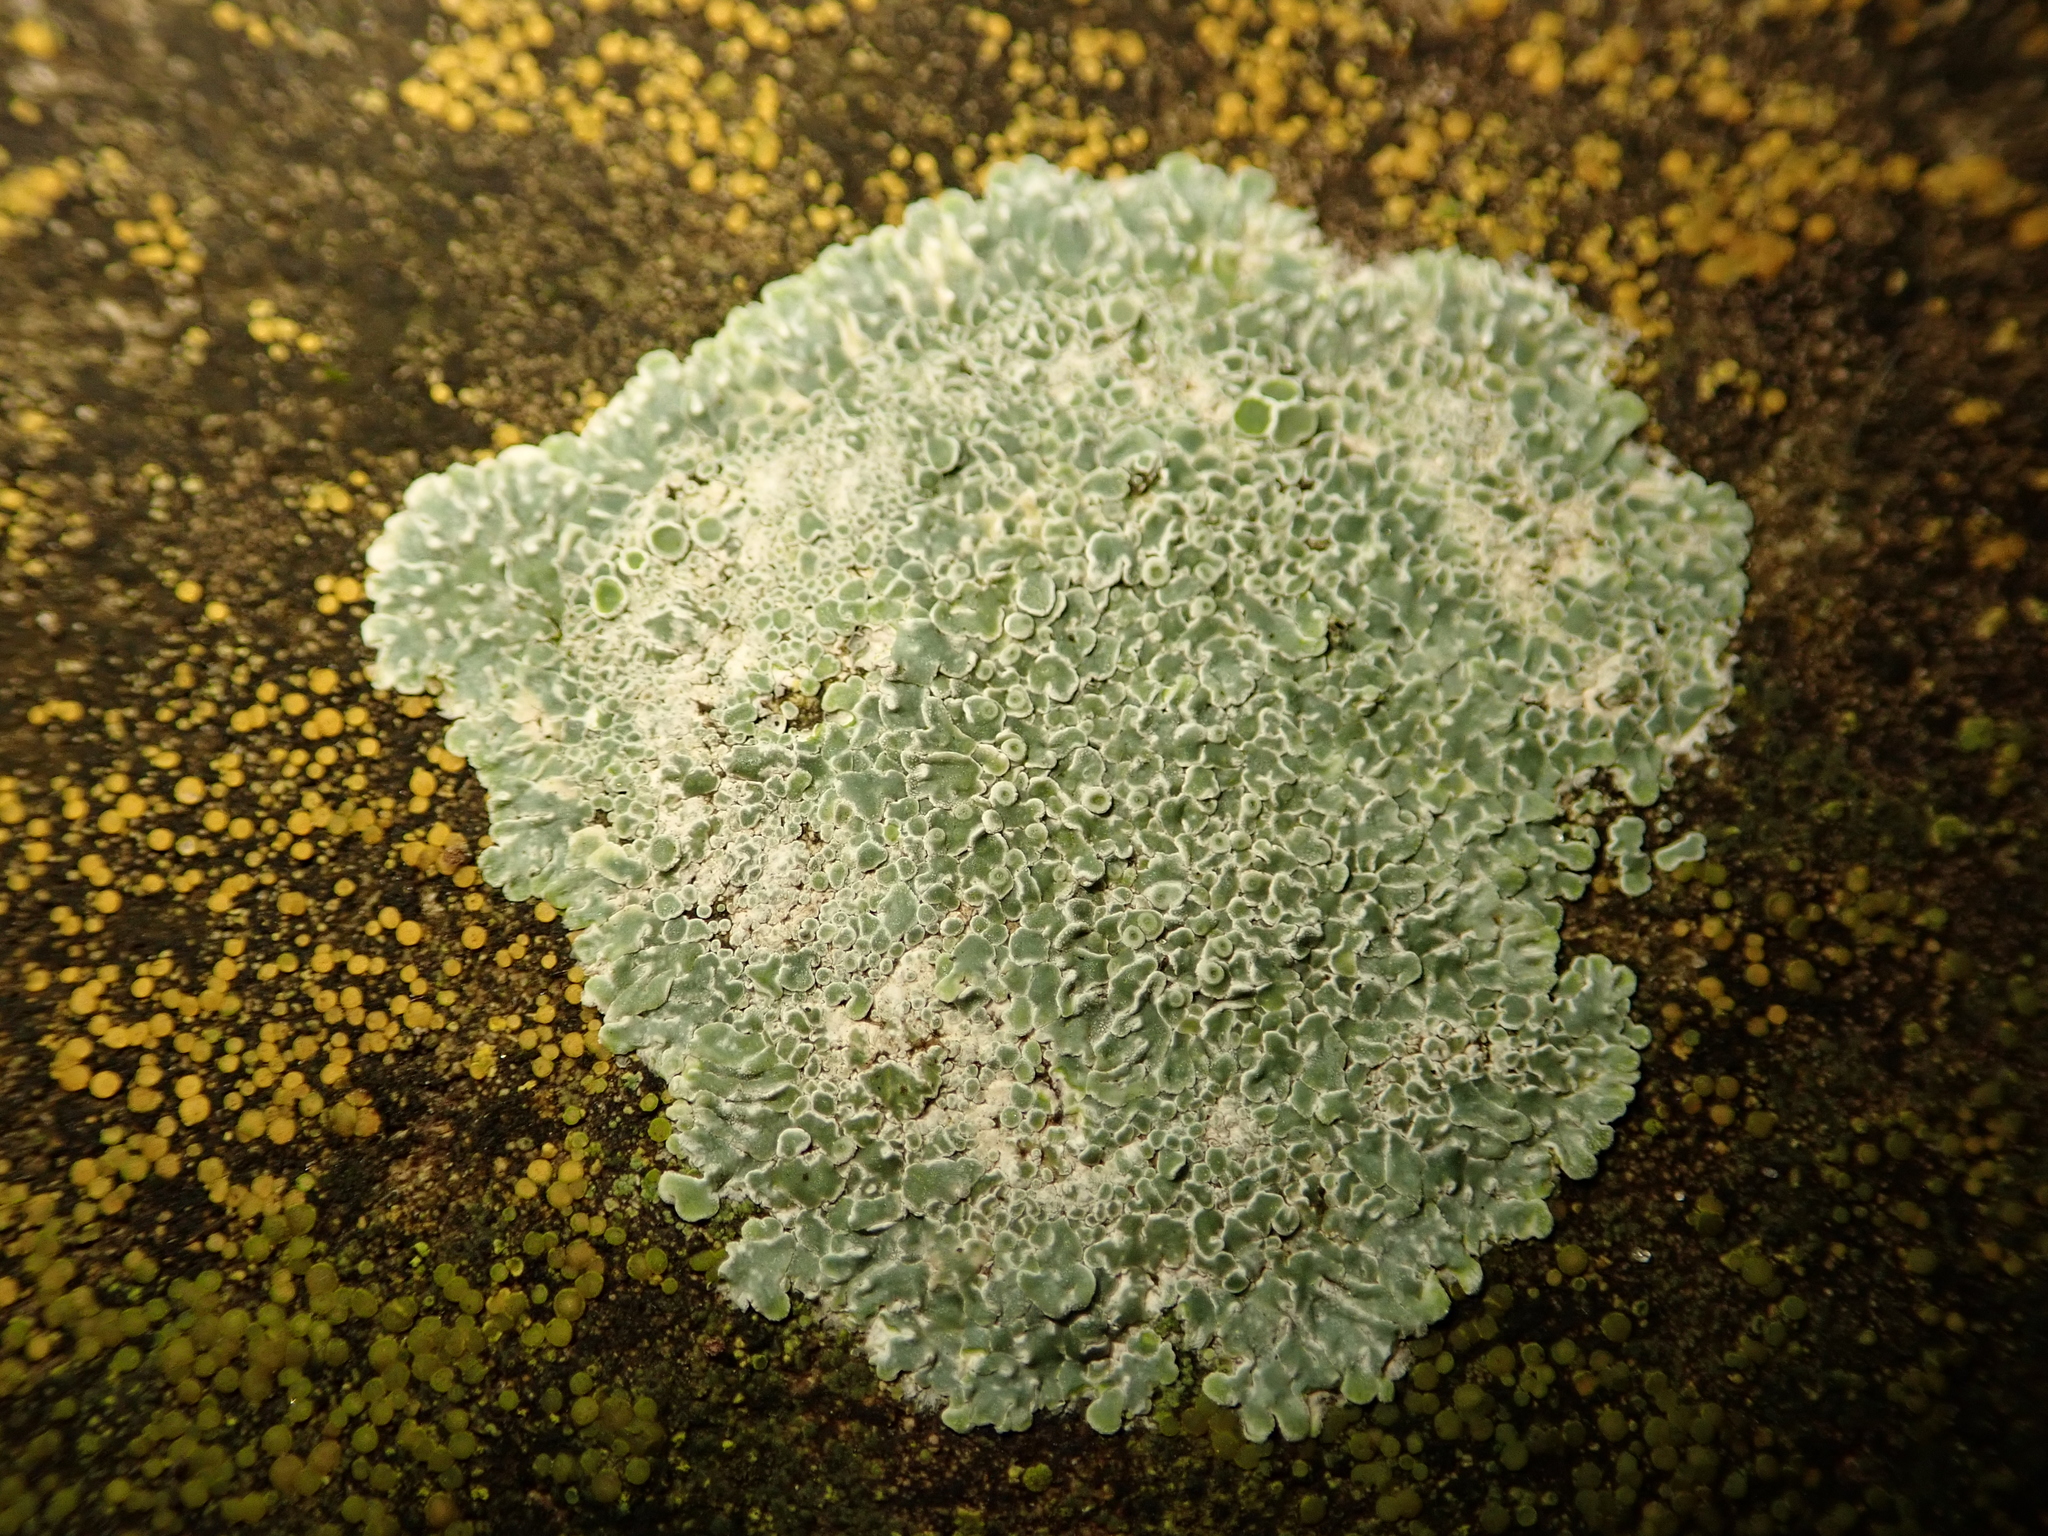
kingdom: Fungi
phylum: Ascomycota
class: Lecanoromycetes
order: Lecanorales
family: Lecanoraceae
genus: Protoparmeliopsis
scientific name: Protoparmeliopsis muralis
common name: Stonewall rim lichen
